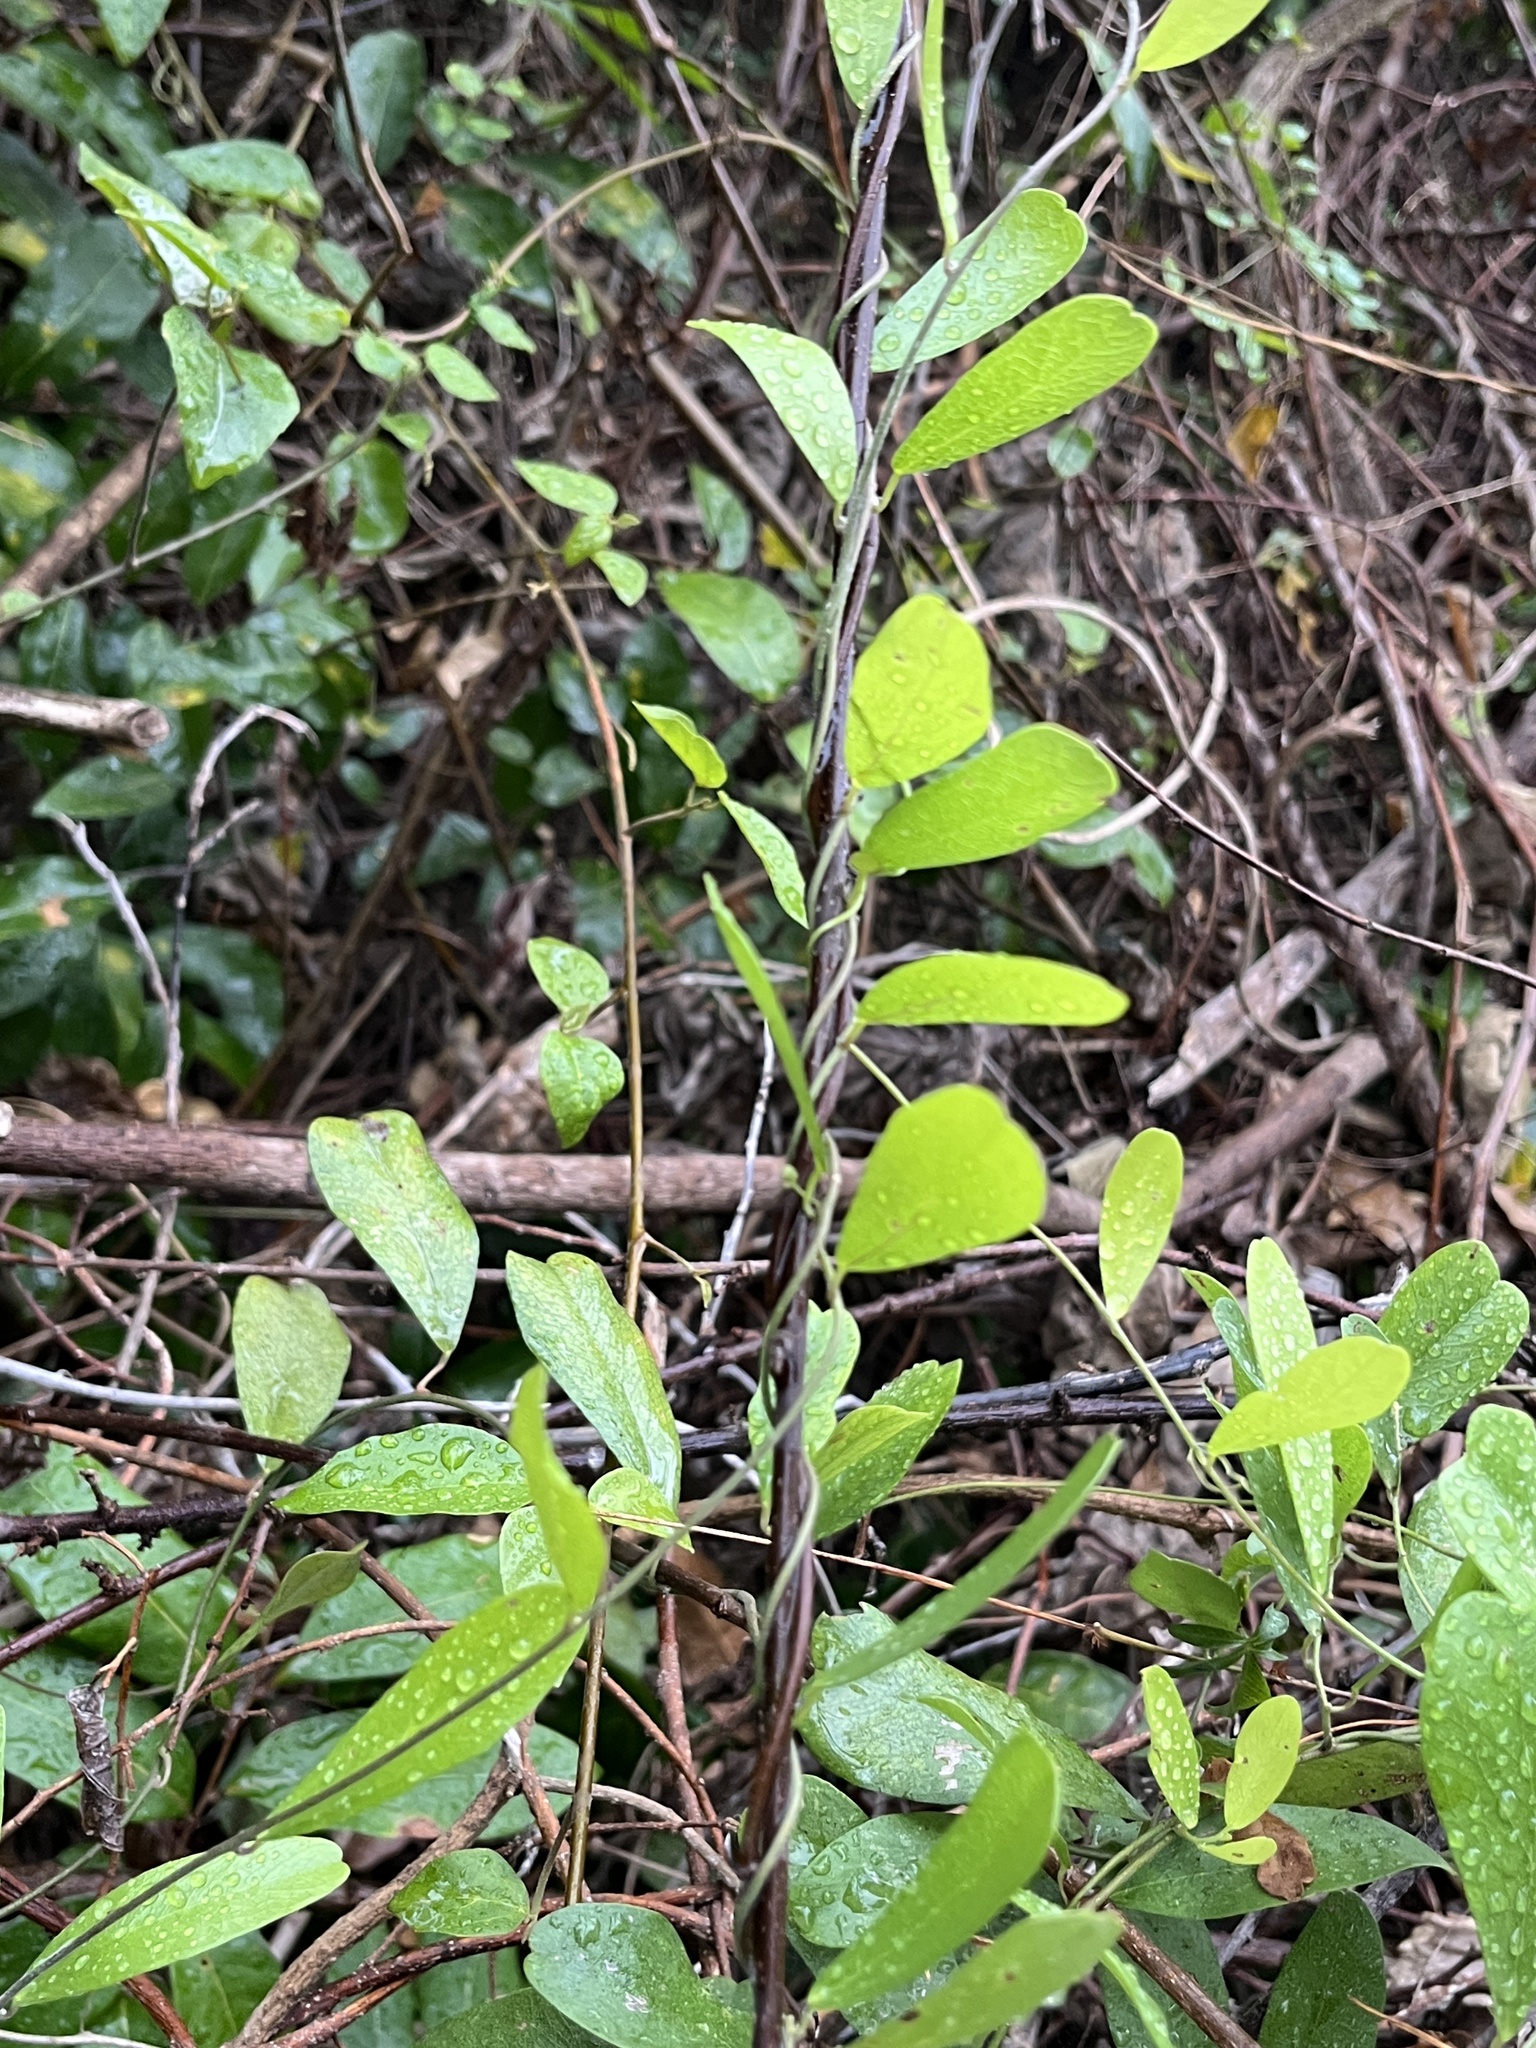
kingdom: Plantae
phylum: Tracheophyta
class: Magnoliopsida
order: Ranunculales
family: Menispermaceae
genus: Cocculus
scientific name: Cocculus orbiculatus
